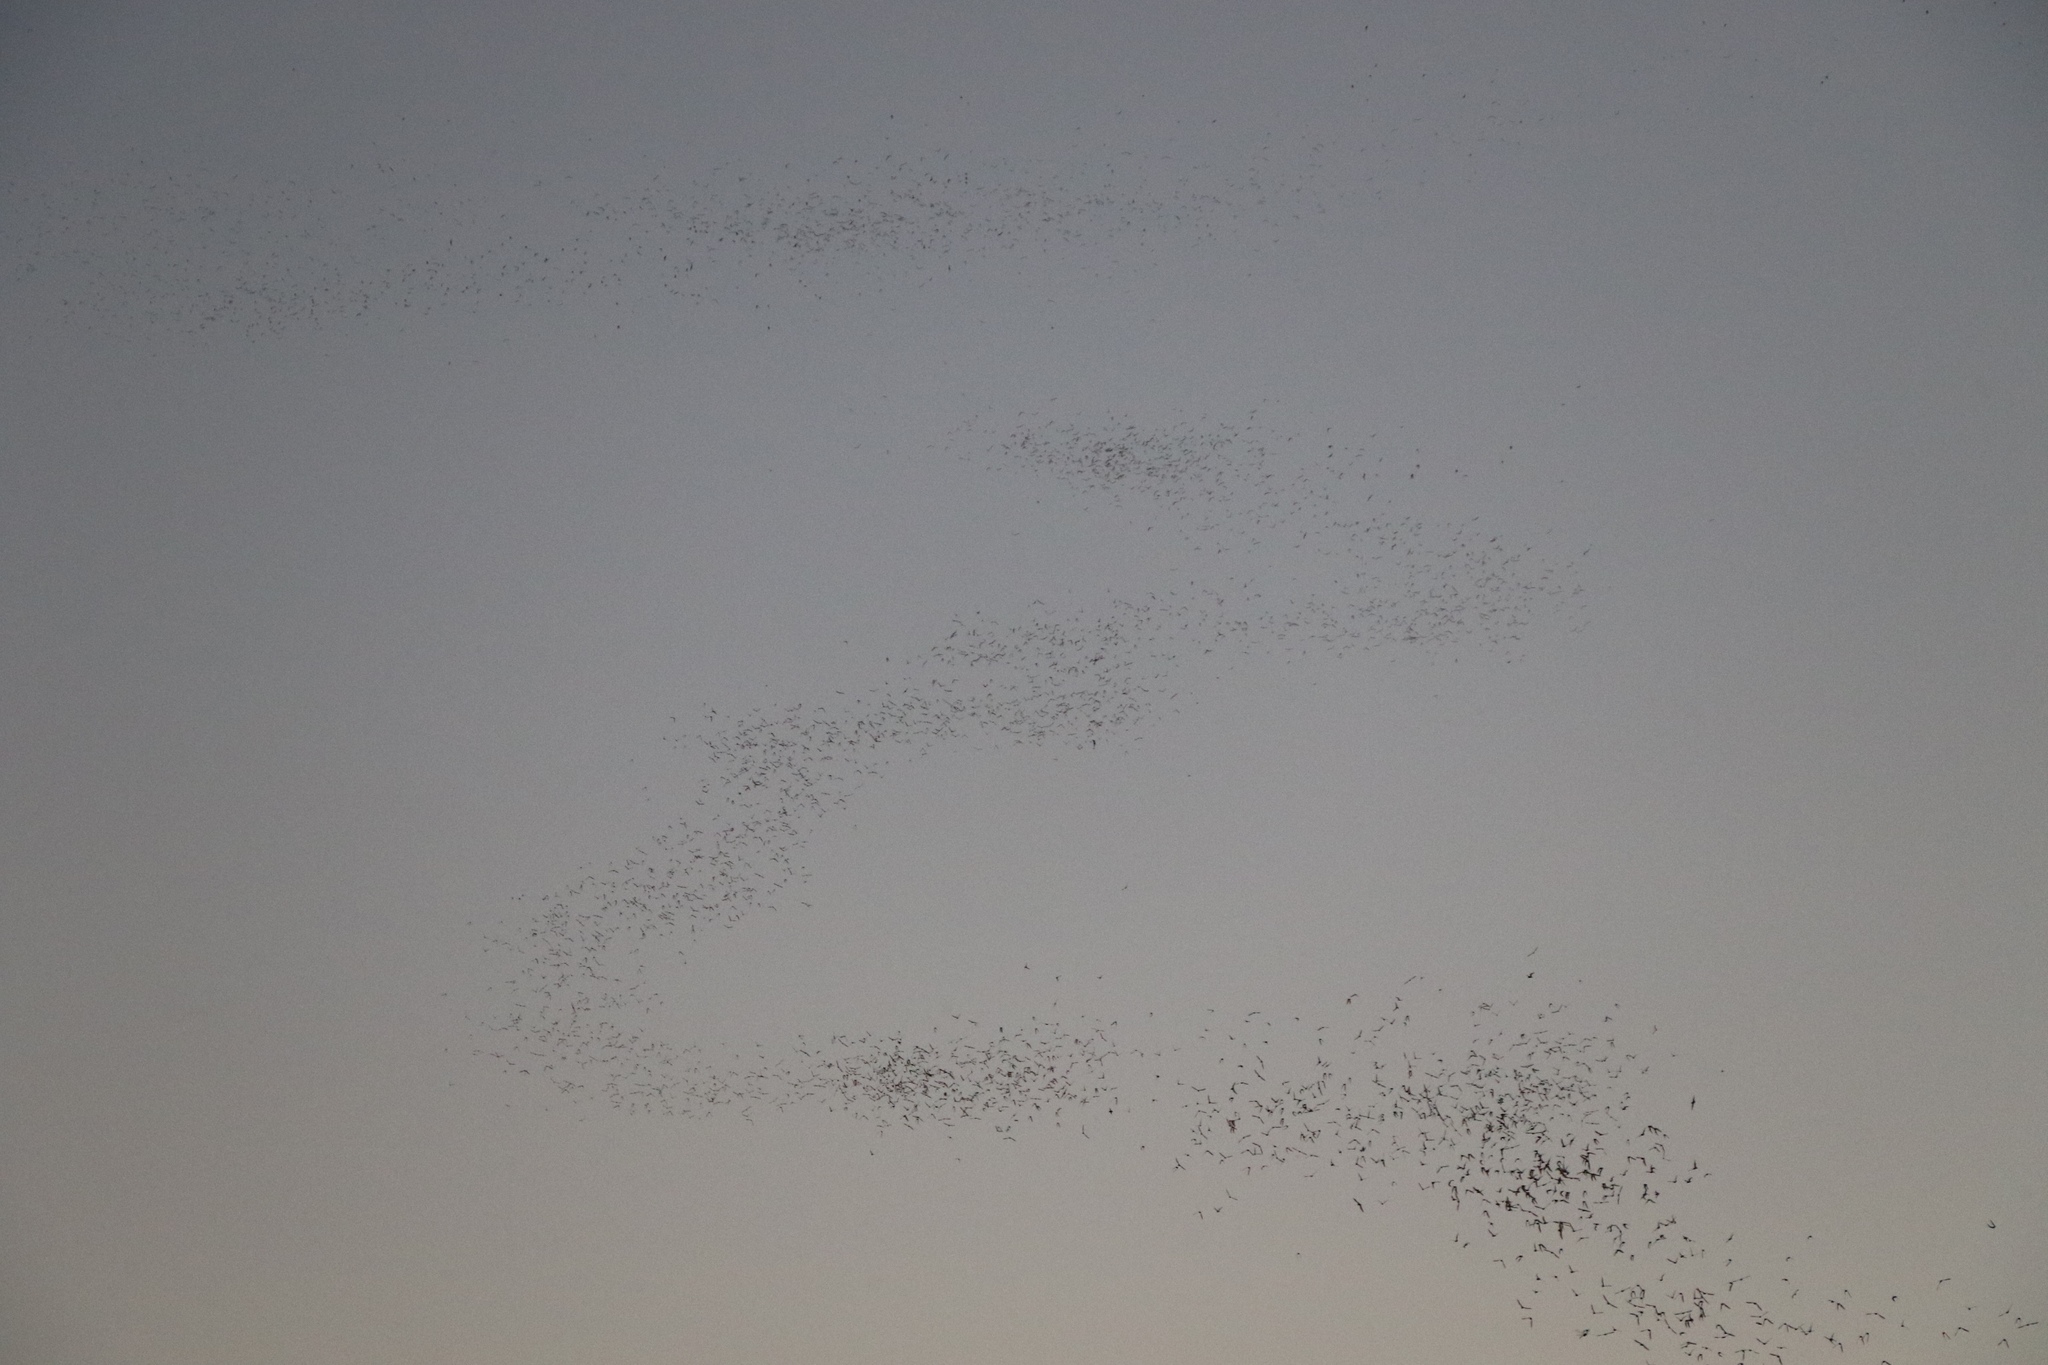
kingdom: Animalia
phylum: Chordata
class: Mammalia
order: Chiroptera
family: Molossidae
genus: Tadarida
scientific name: Tadarida brasiliensis
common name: Mexican free-tailed bat
